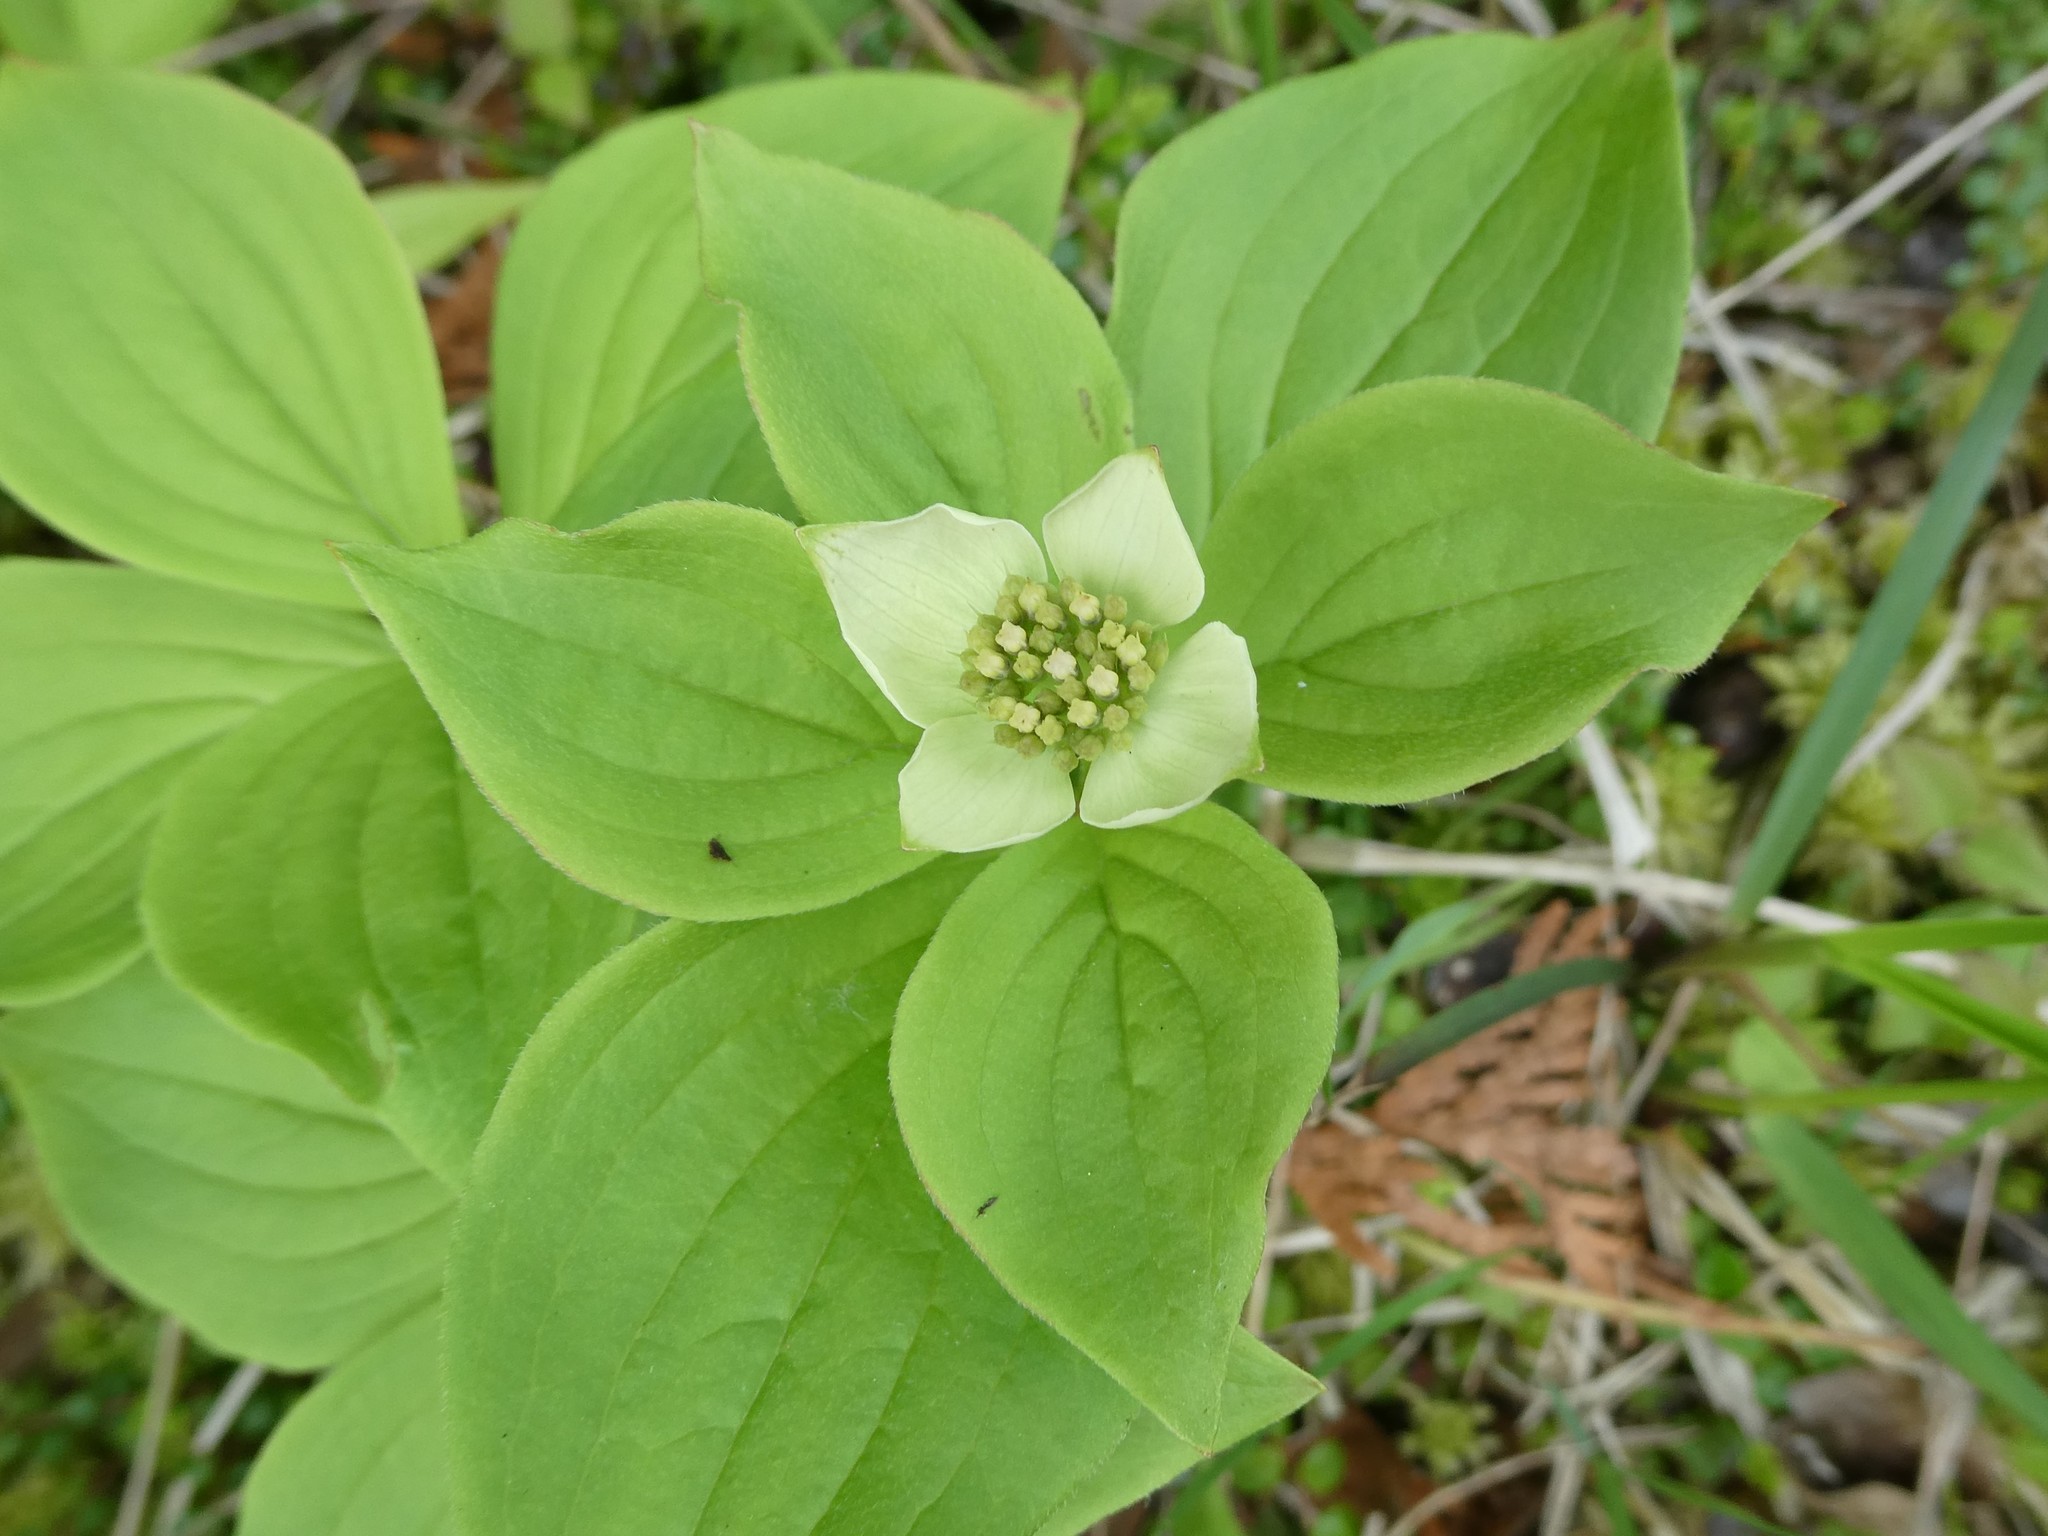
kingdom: Plantae
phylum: Tracheophyta
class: Magnoliopsida
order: Cornales
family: Cornaceae
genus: Cornus
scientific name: Cornus canadensis
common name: Creeping dogwood
